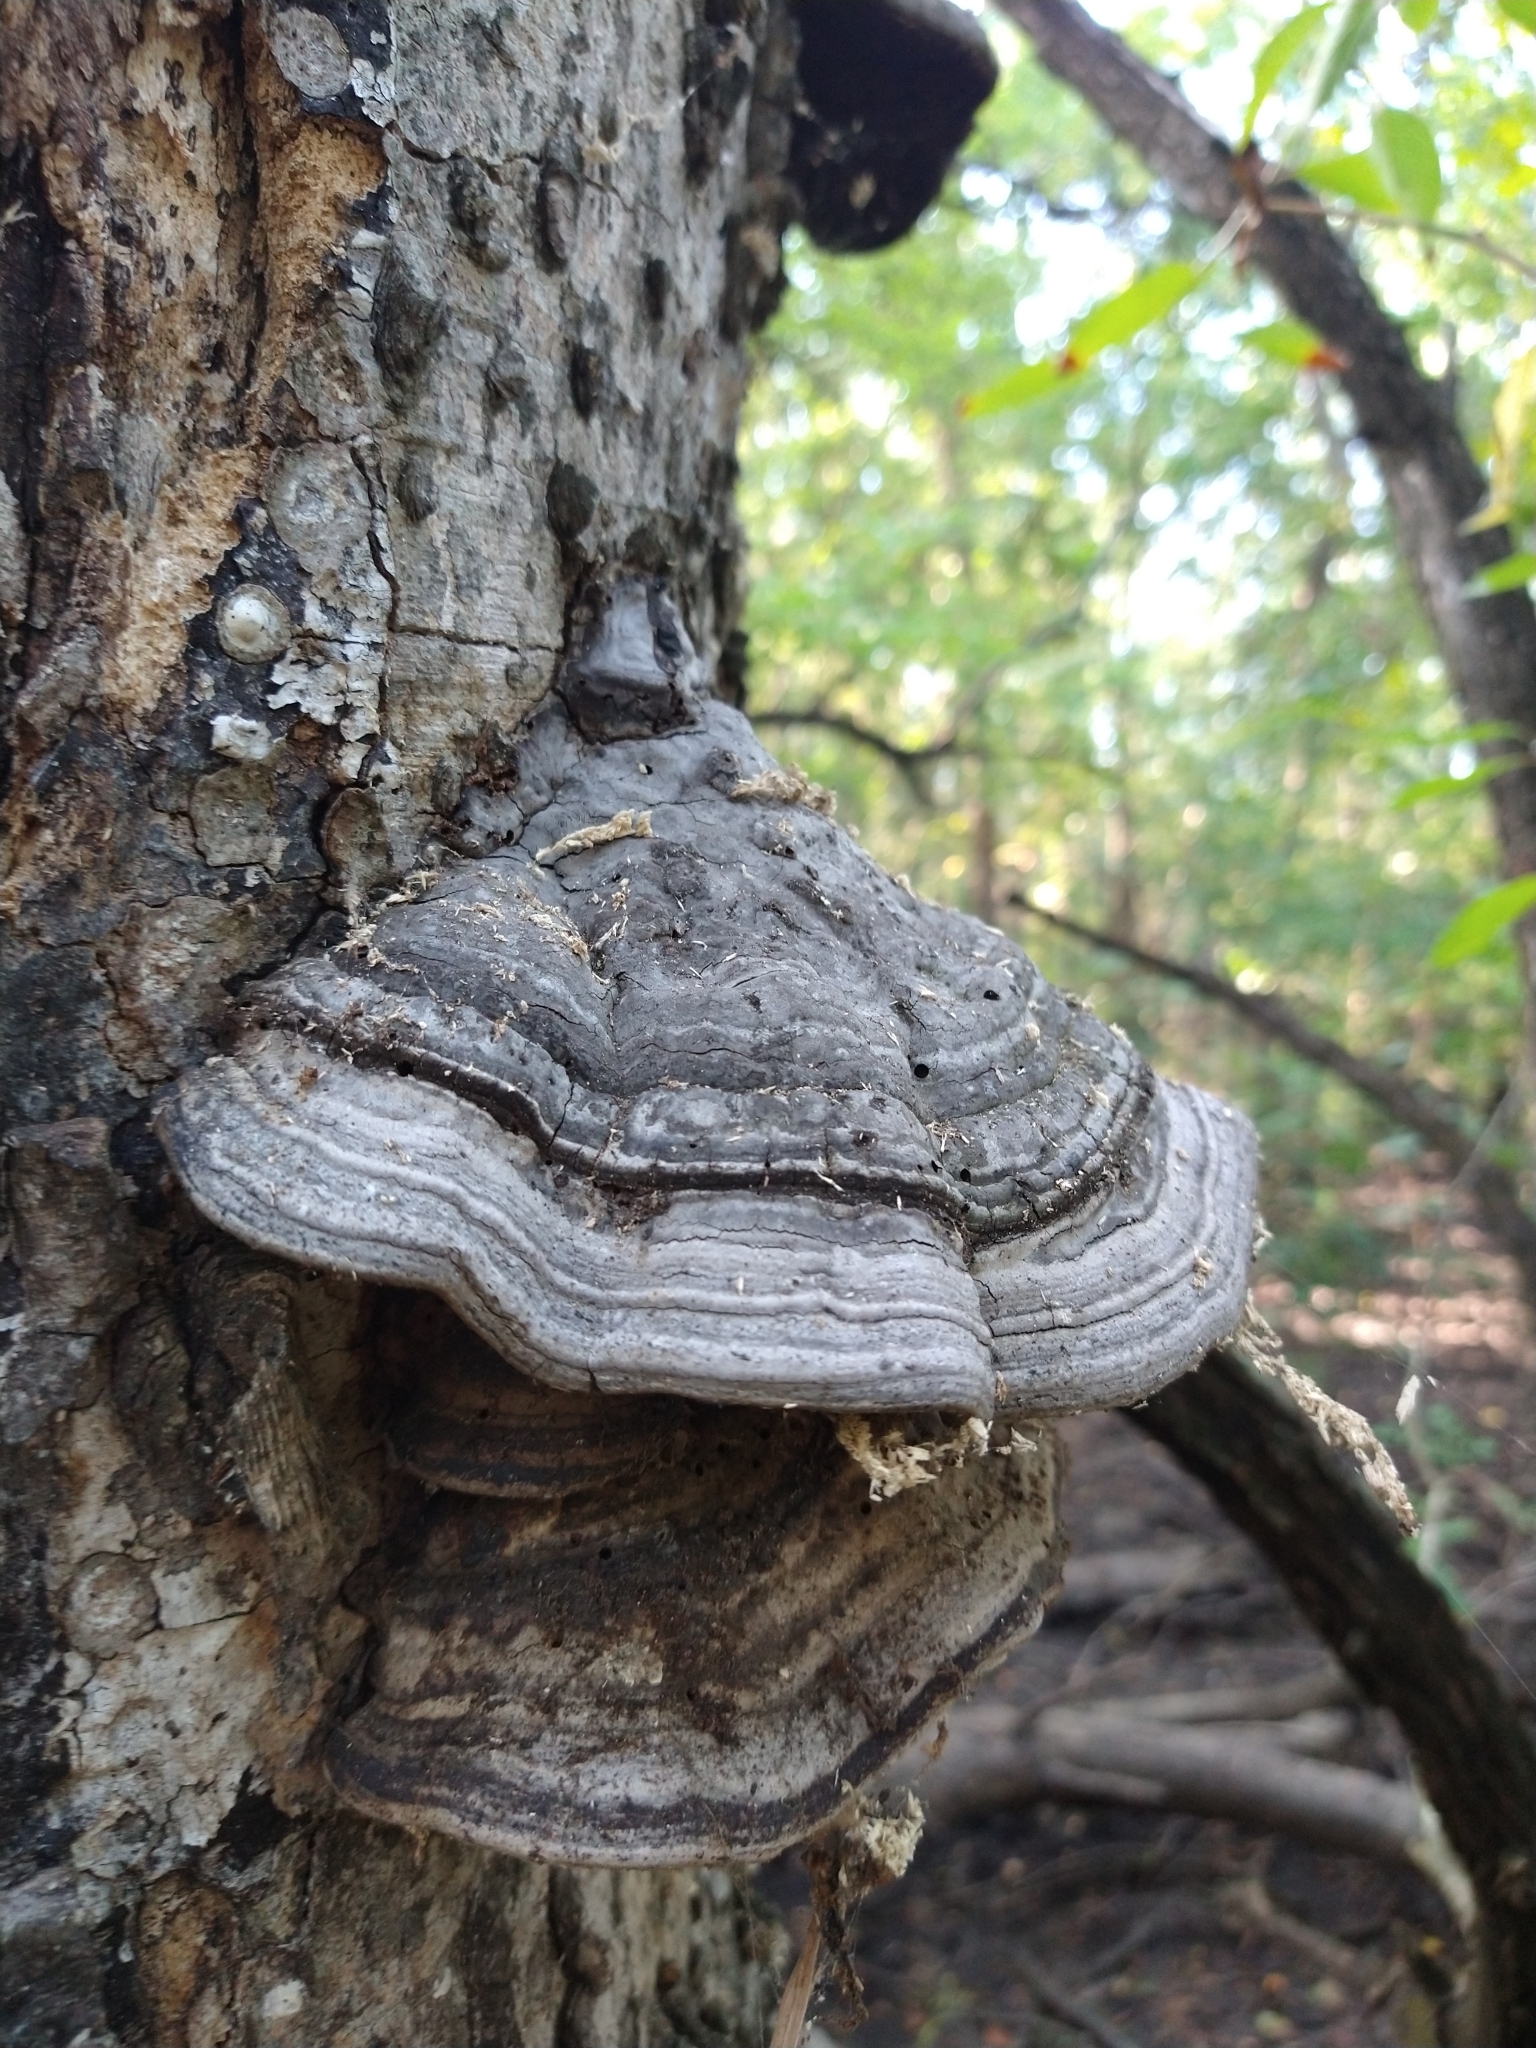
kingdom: Fungi
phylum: Basidiomycota
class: Agaricomycetes
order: Polyporales
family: Polyporaceae
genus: Fomes
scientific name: Fomes fasciatus
